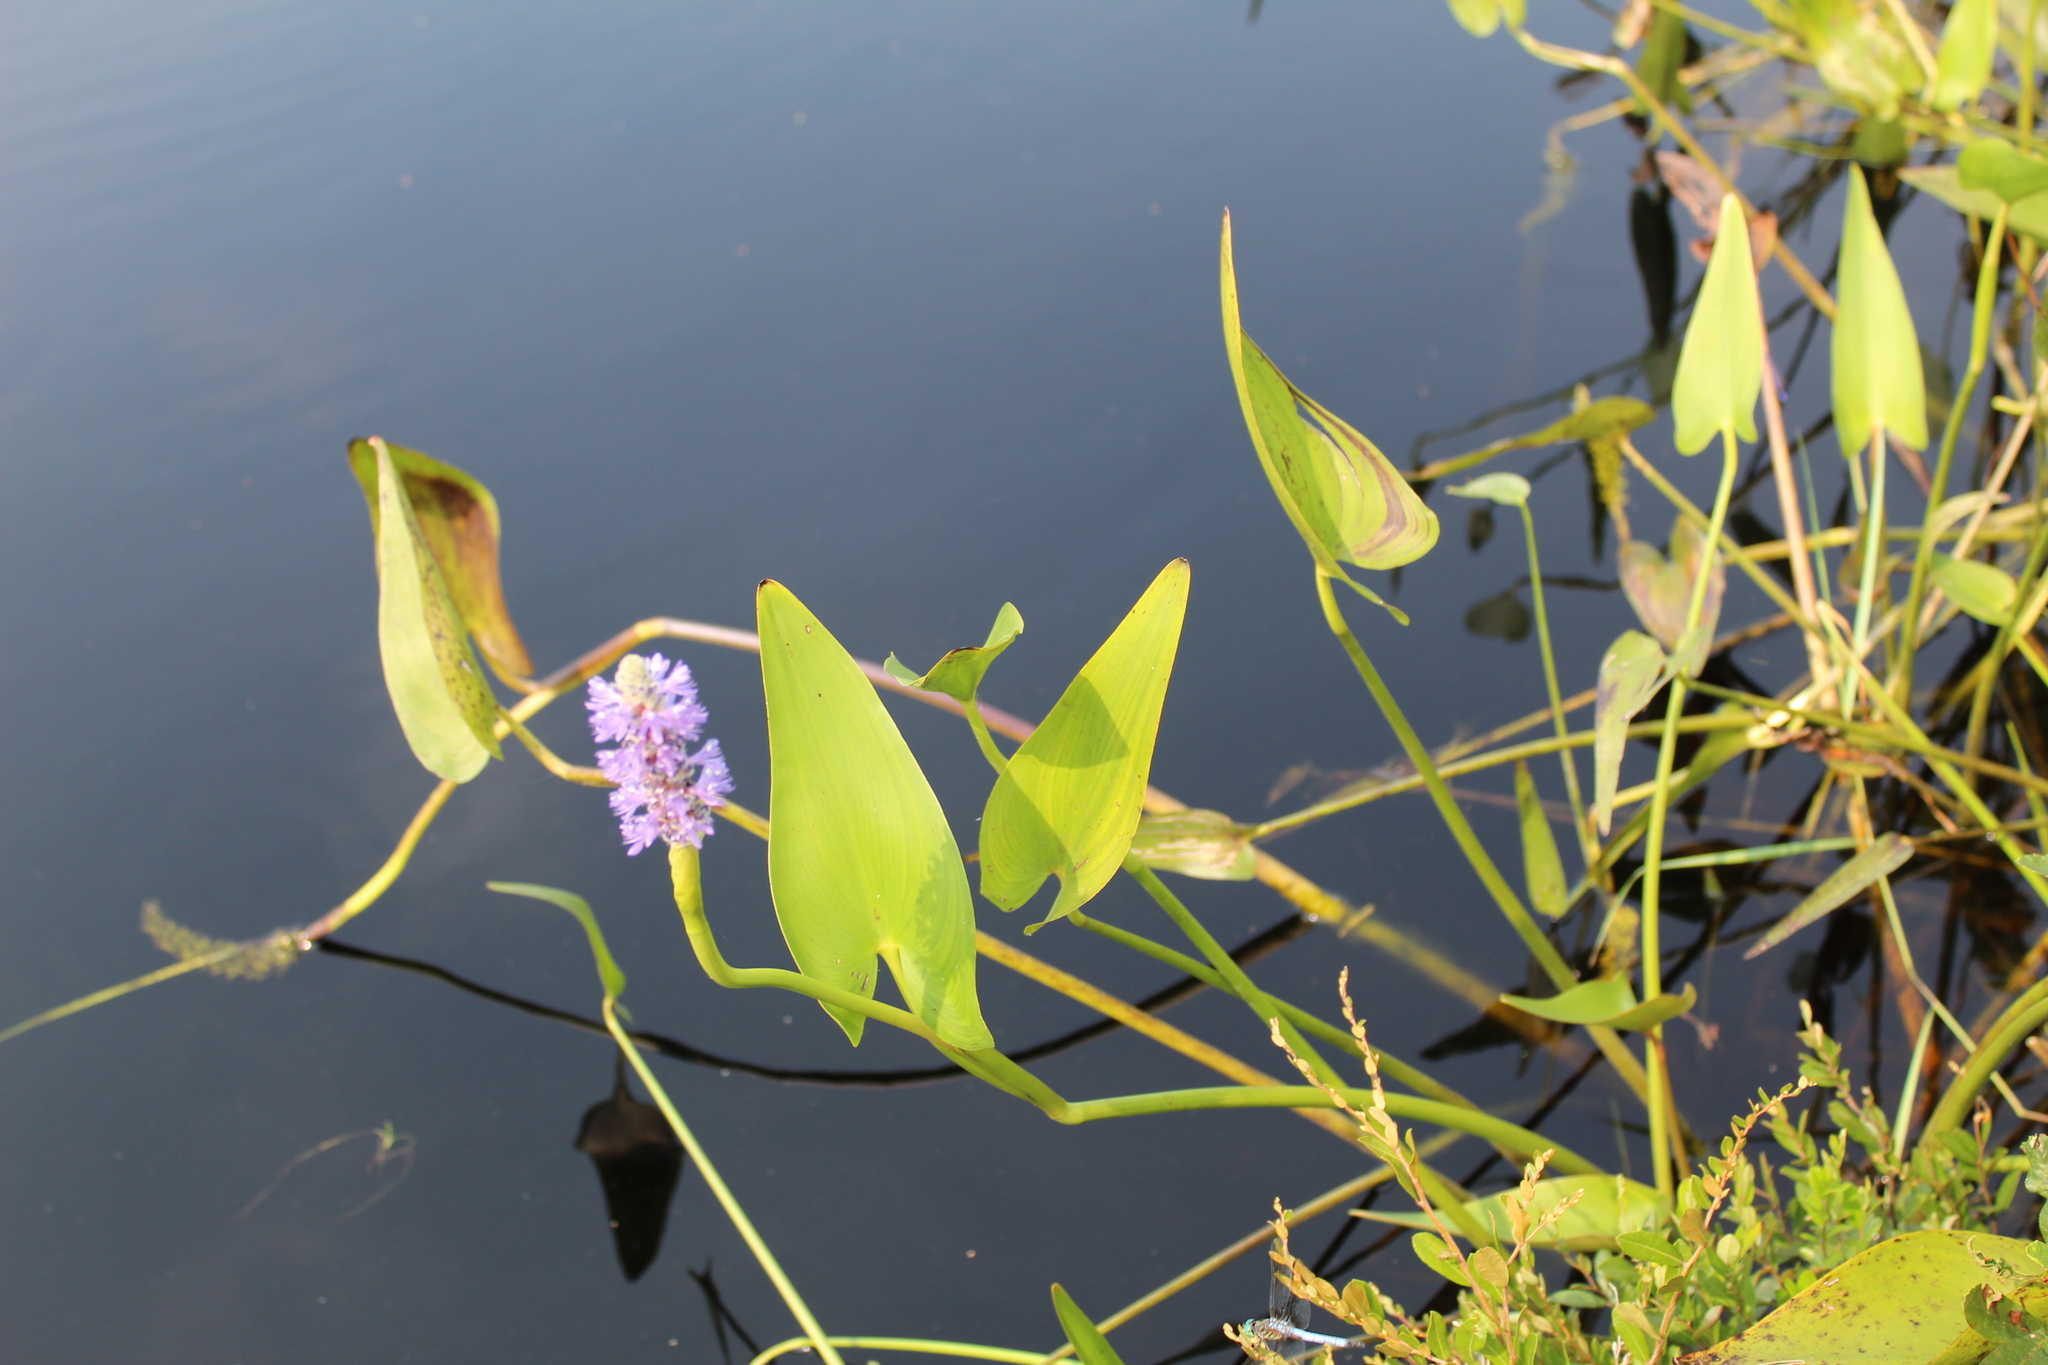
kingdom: Plantae
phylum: Tracheophyta
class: Liliopsida
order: Commelinales
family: Pontederiaceae
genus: Pontederia
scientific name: Pontederia cordata
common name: Pickerelweed
